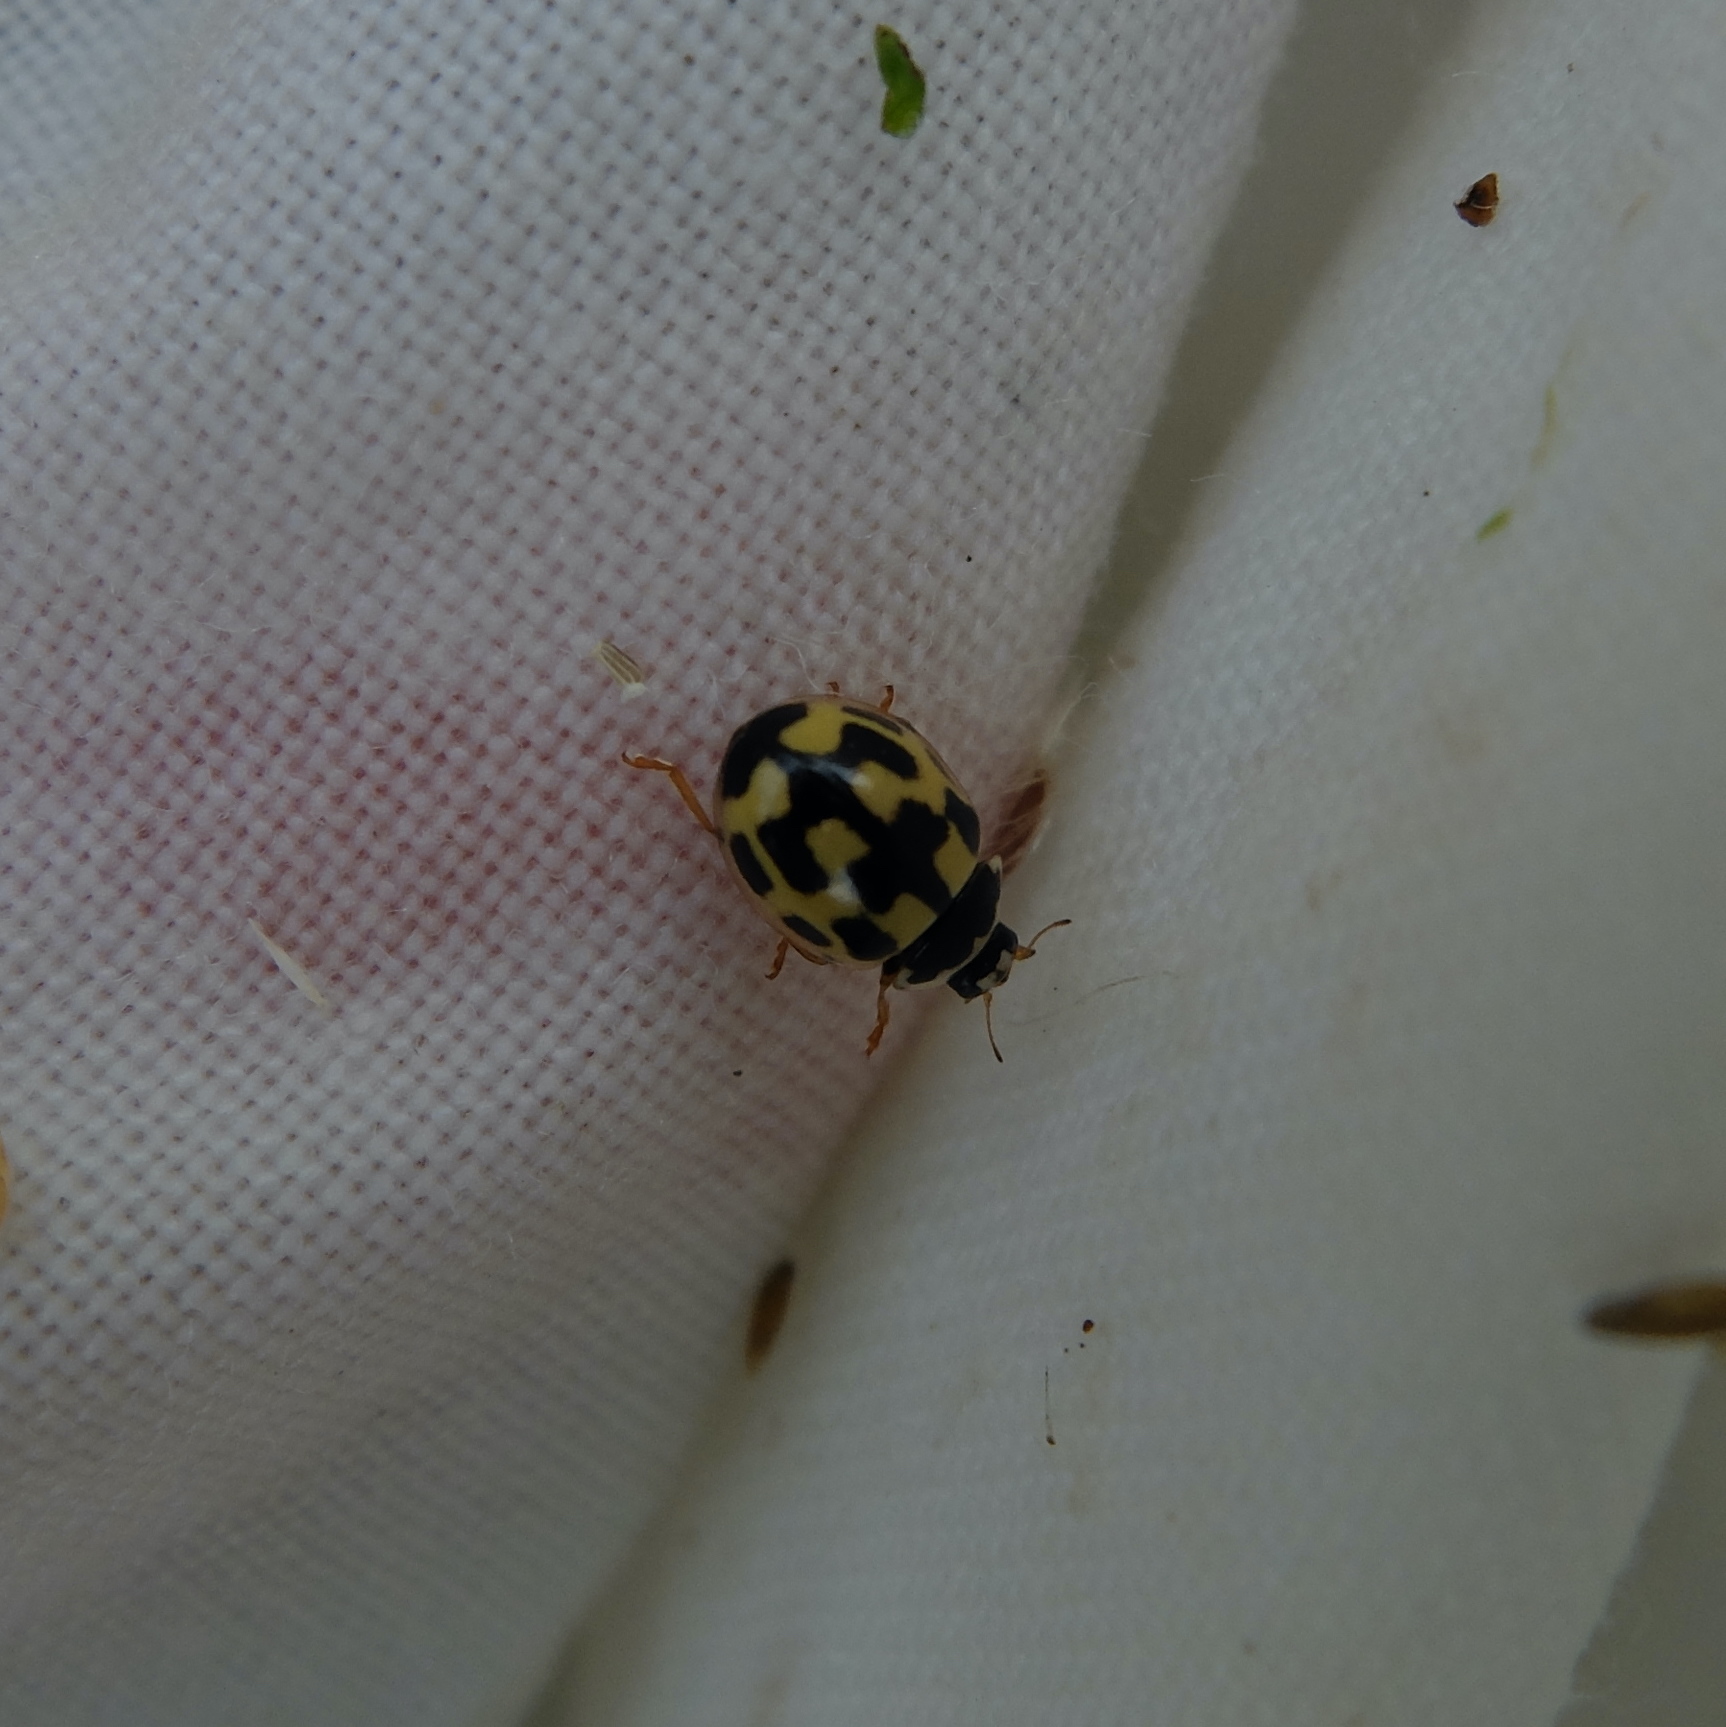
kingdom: Animalia
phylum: Arthropoda
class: Insecta
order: Coleoptera
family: Coccinellidae
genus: Propylaea
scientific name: Propylaea quatuordecimpunctata
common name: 14-spotted ladybird beetle
